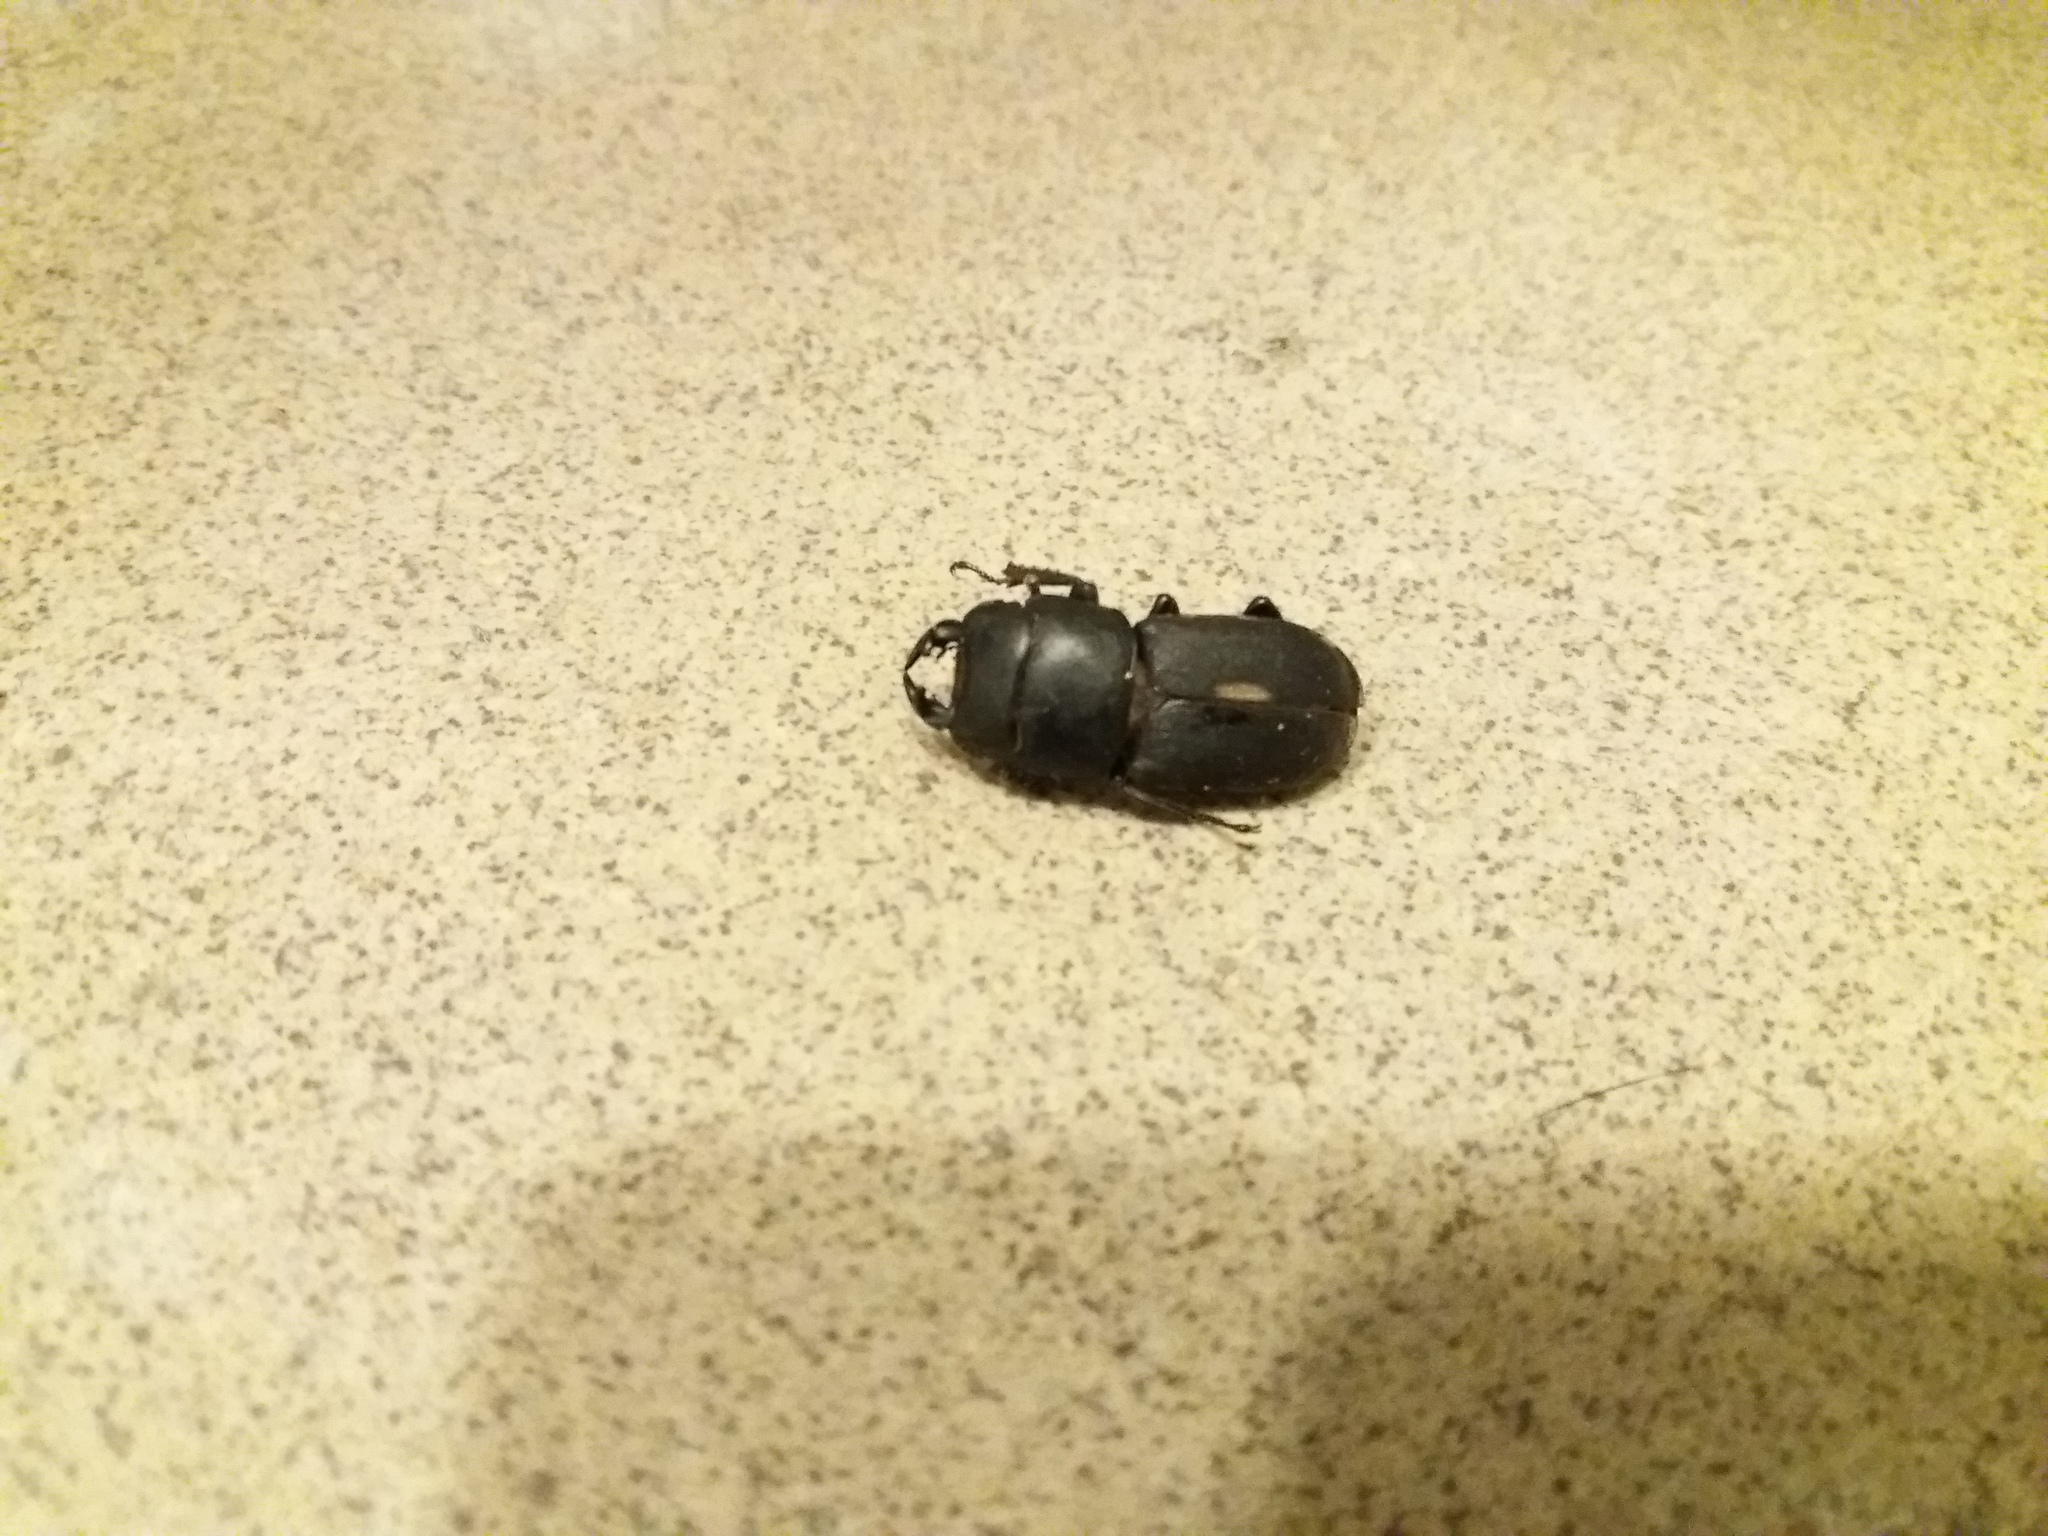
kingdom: Animalia
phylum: Arthropoda
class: Insecta
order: Coleoptera
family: Lucanidae
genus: Dorcus
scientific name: Dorcus parallelipipedus
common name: Lesser stag beetle
